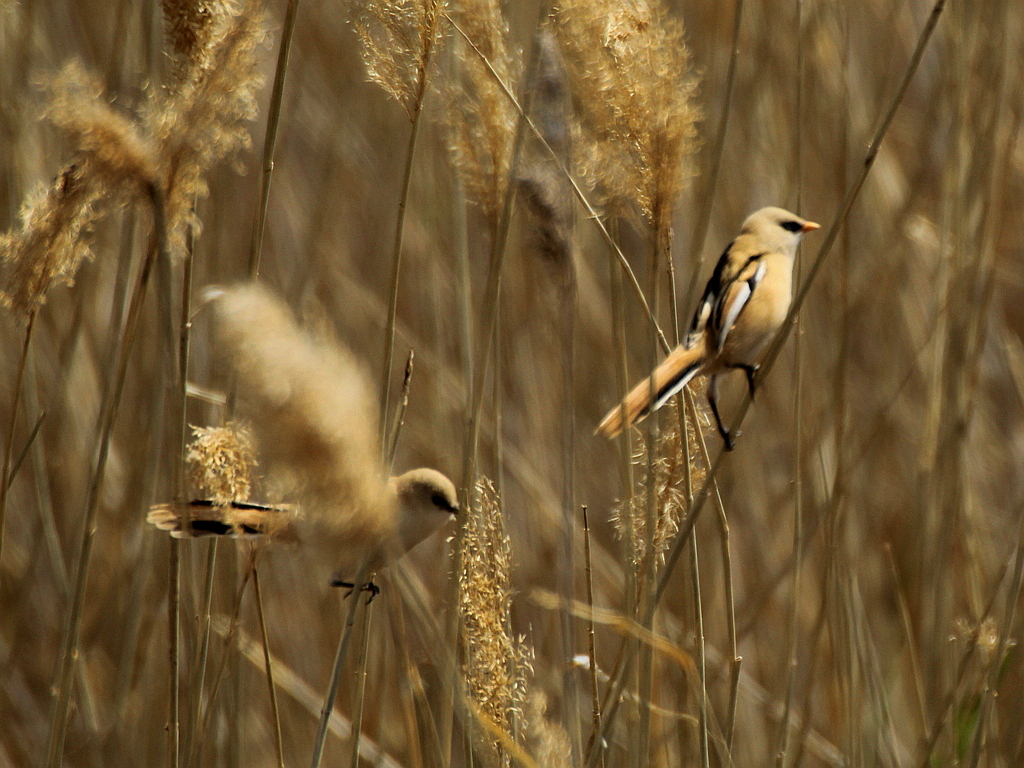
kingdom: Animalia
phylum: Chordata
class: Aves
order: Passeriformes
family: Panuridae
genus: Panurus
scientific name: Panurus biarmicus
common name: Bearded reedling
